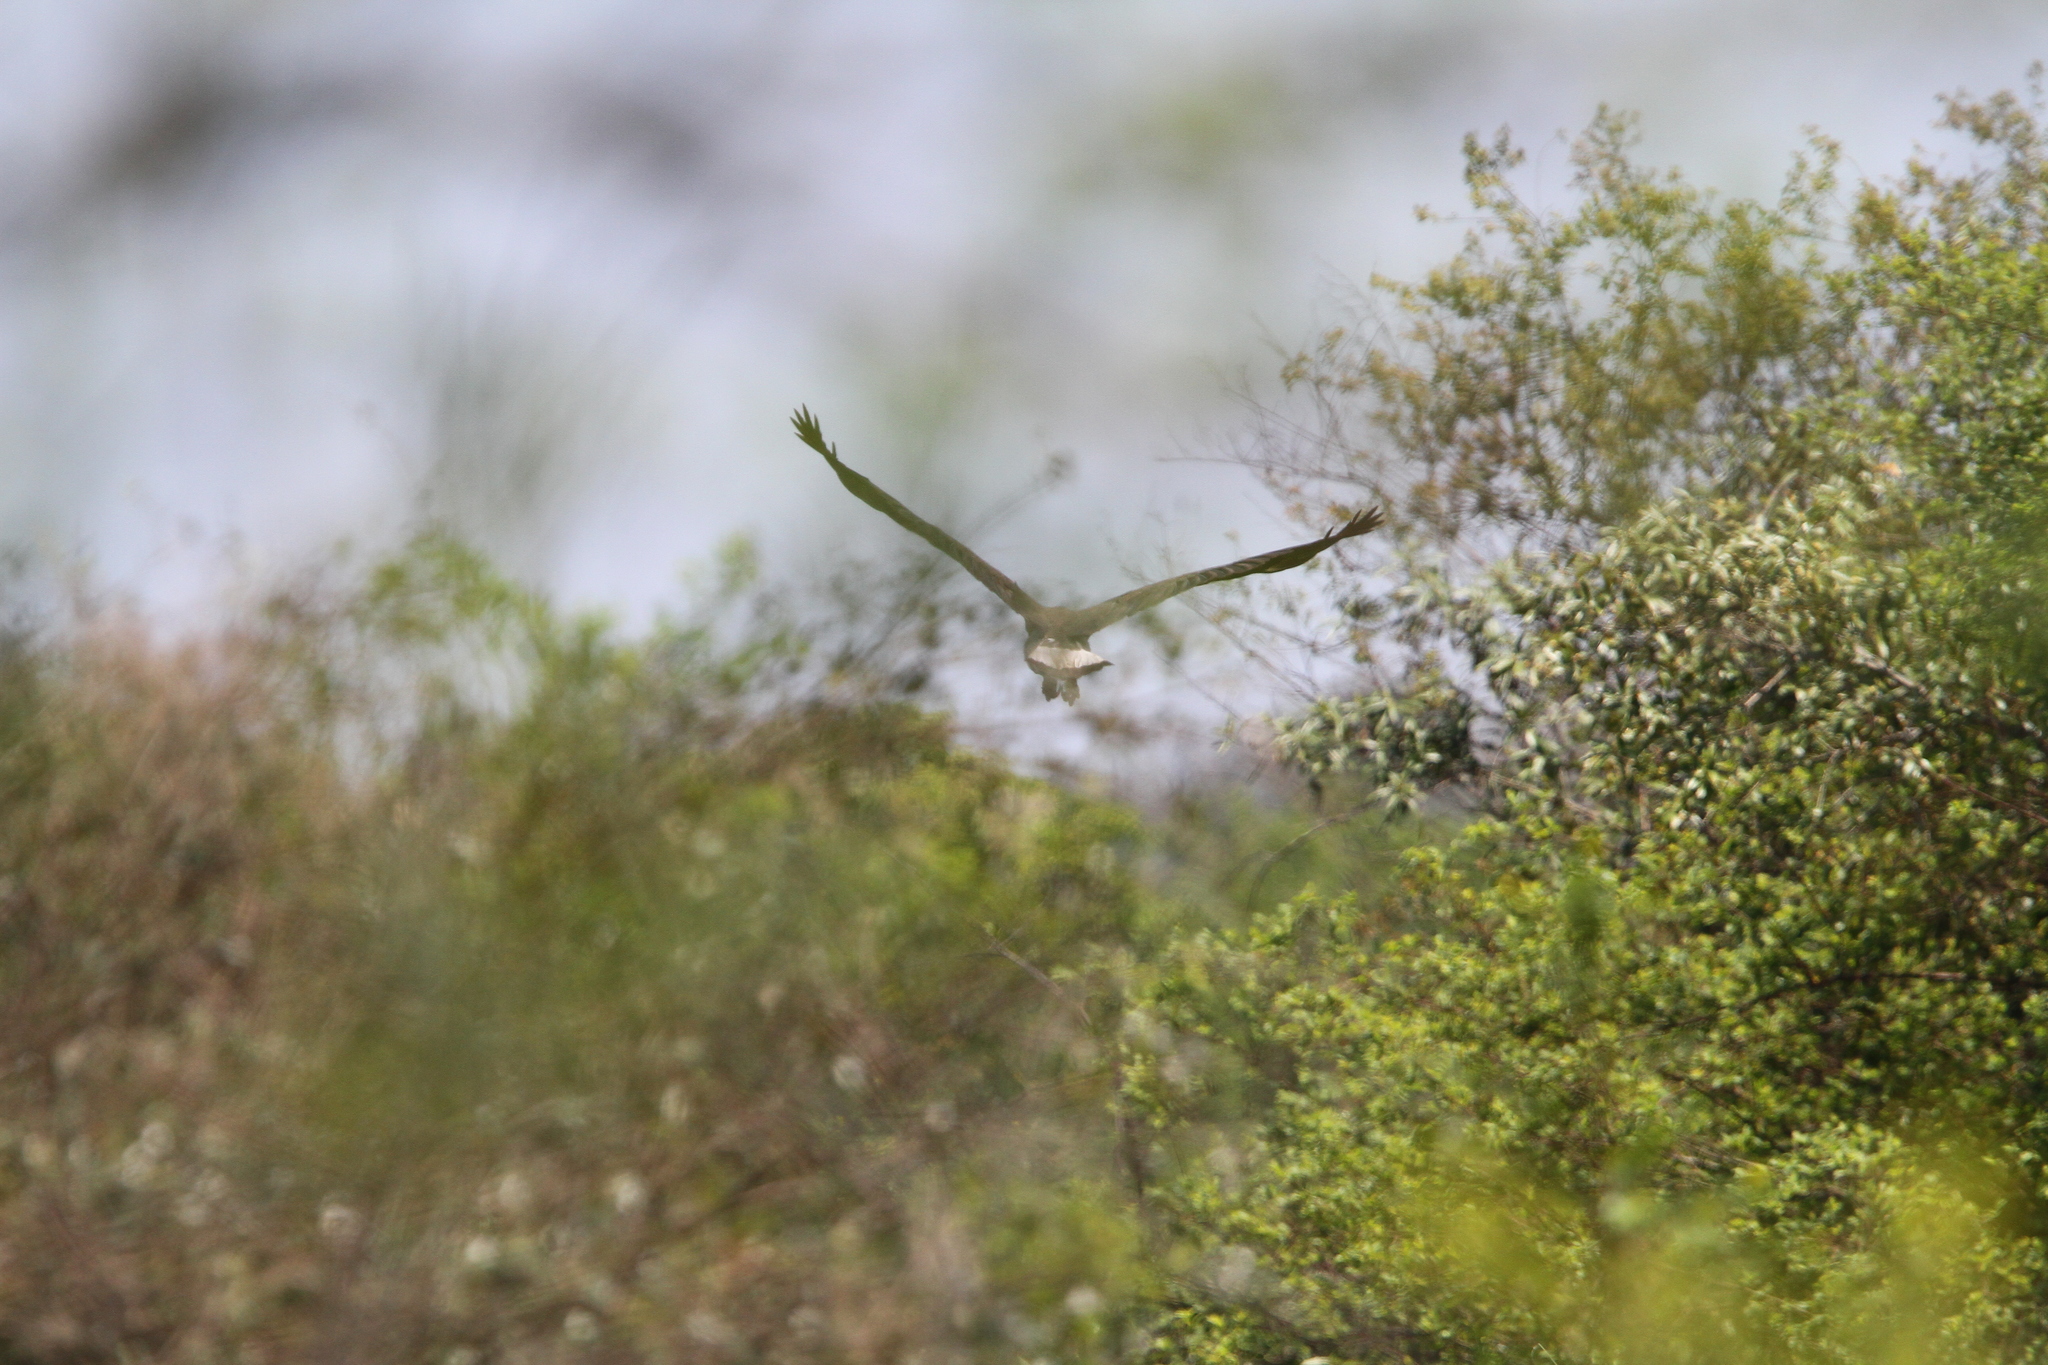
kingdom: Animalia
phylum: Chordata
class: Aves
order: Accipitriformes
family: Accipitridae
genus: Icthyophaga
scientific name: Icthyophaga ichthyaetus
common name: Grey-headed fish eagle
